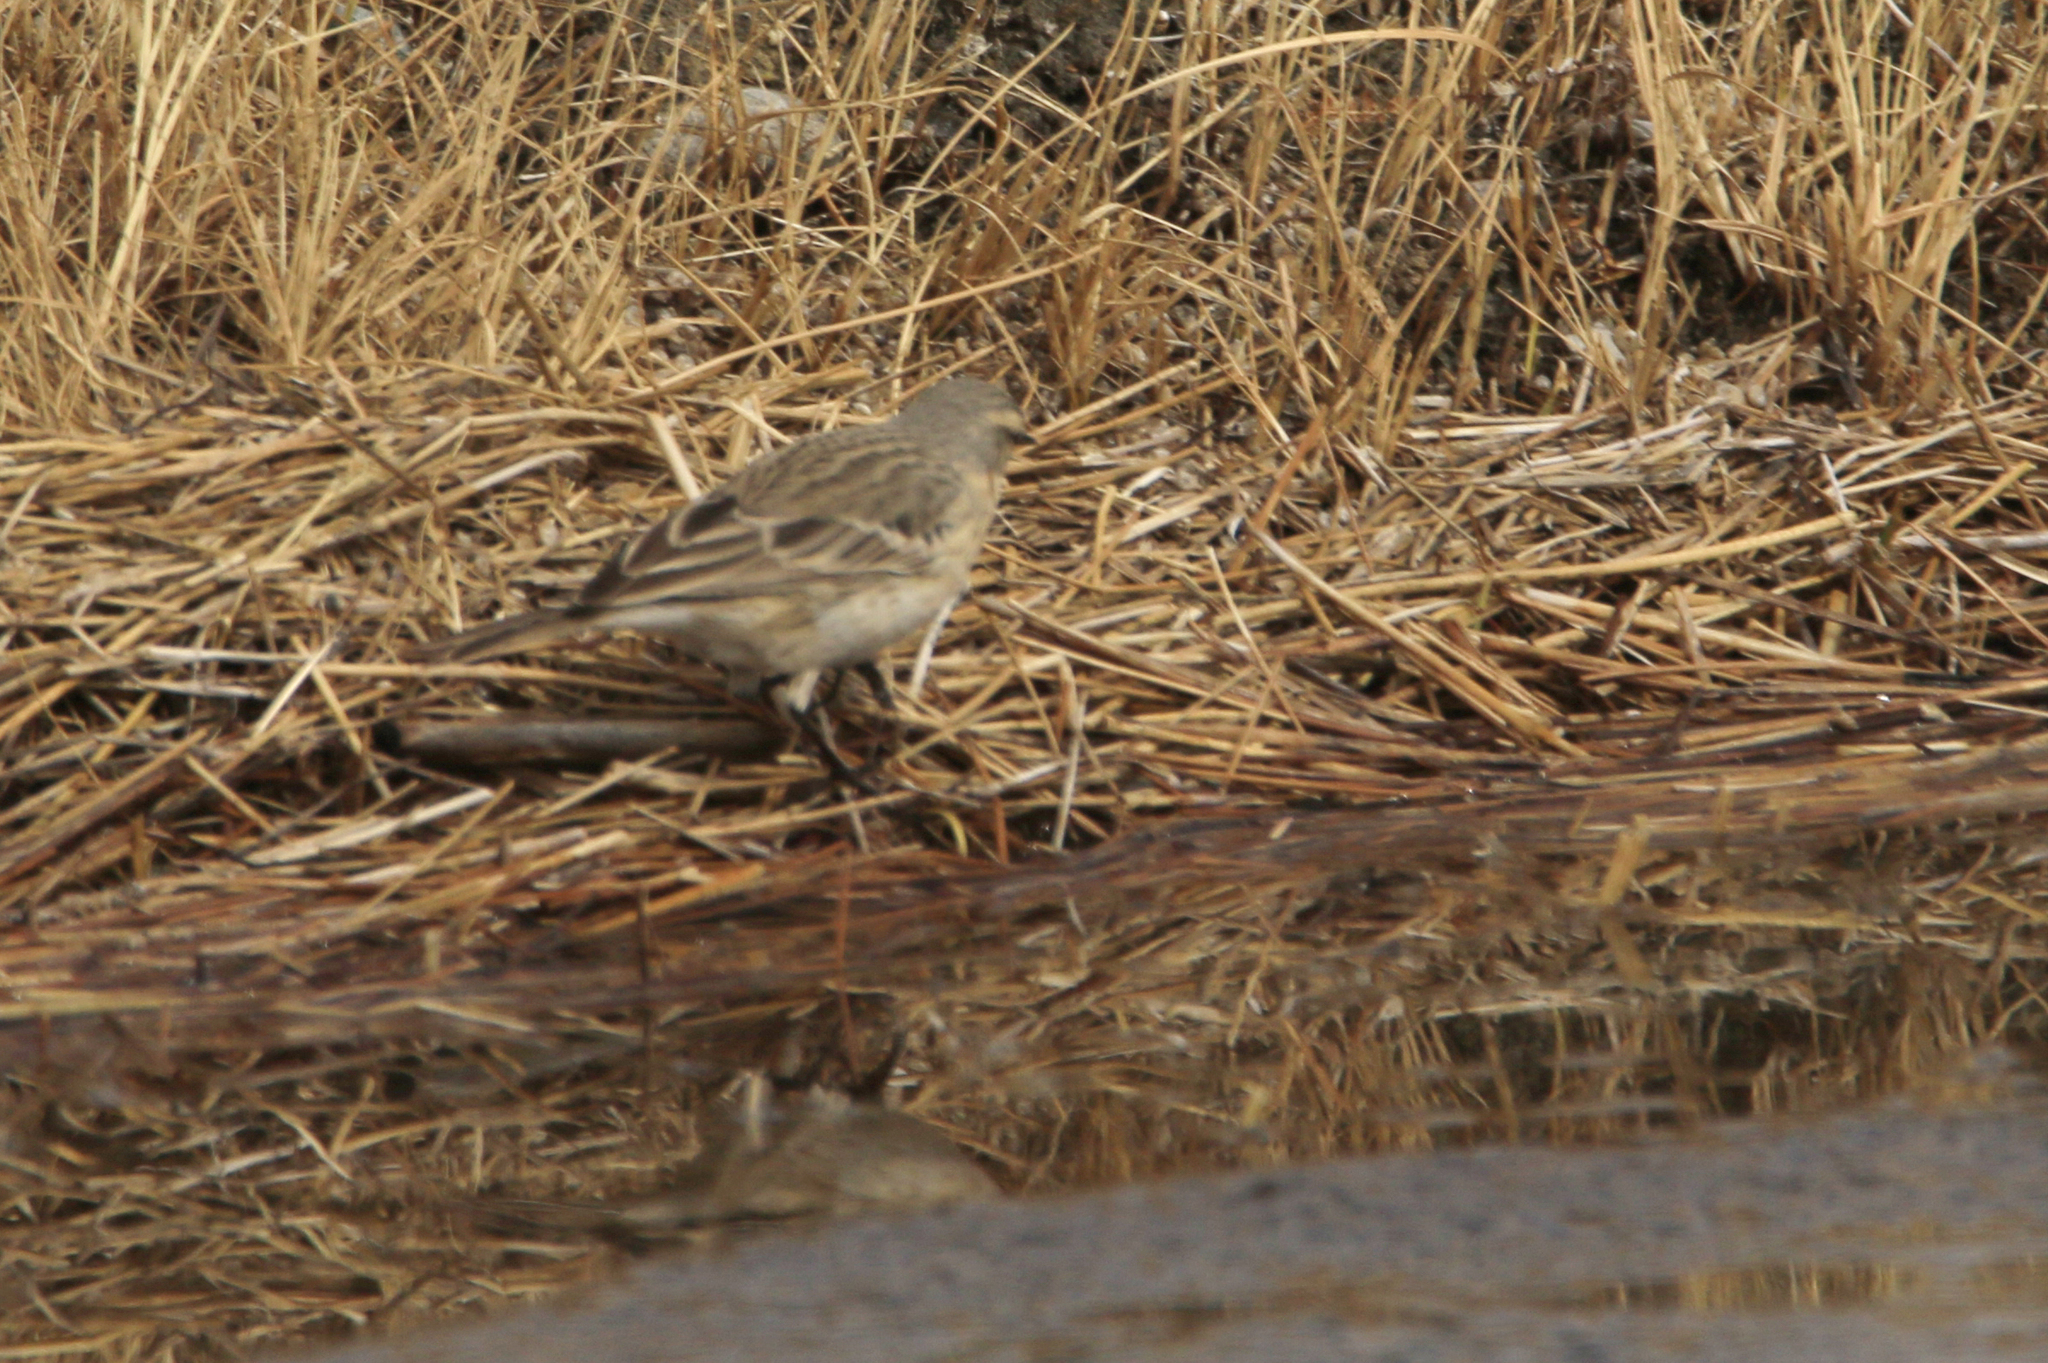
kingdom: Animalia
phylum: Chordata
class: Aves
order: Passeriformes
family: Motacillidae
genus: Anthus
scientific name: Anthus spinoletta
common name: Water pipit
